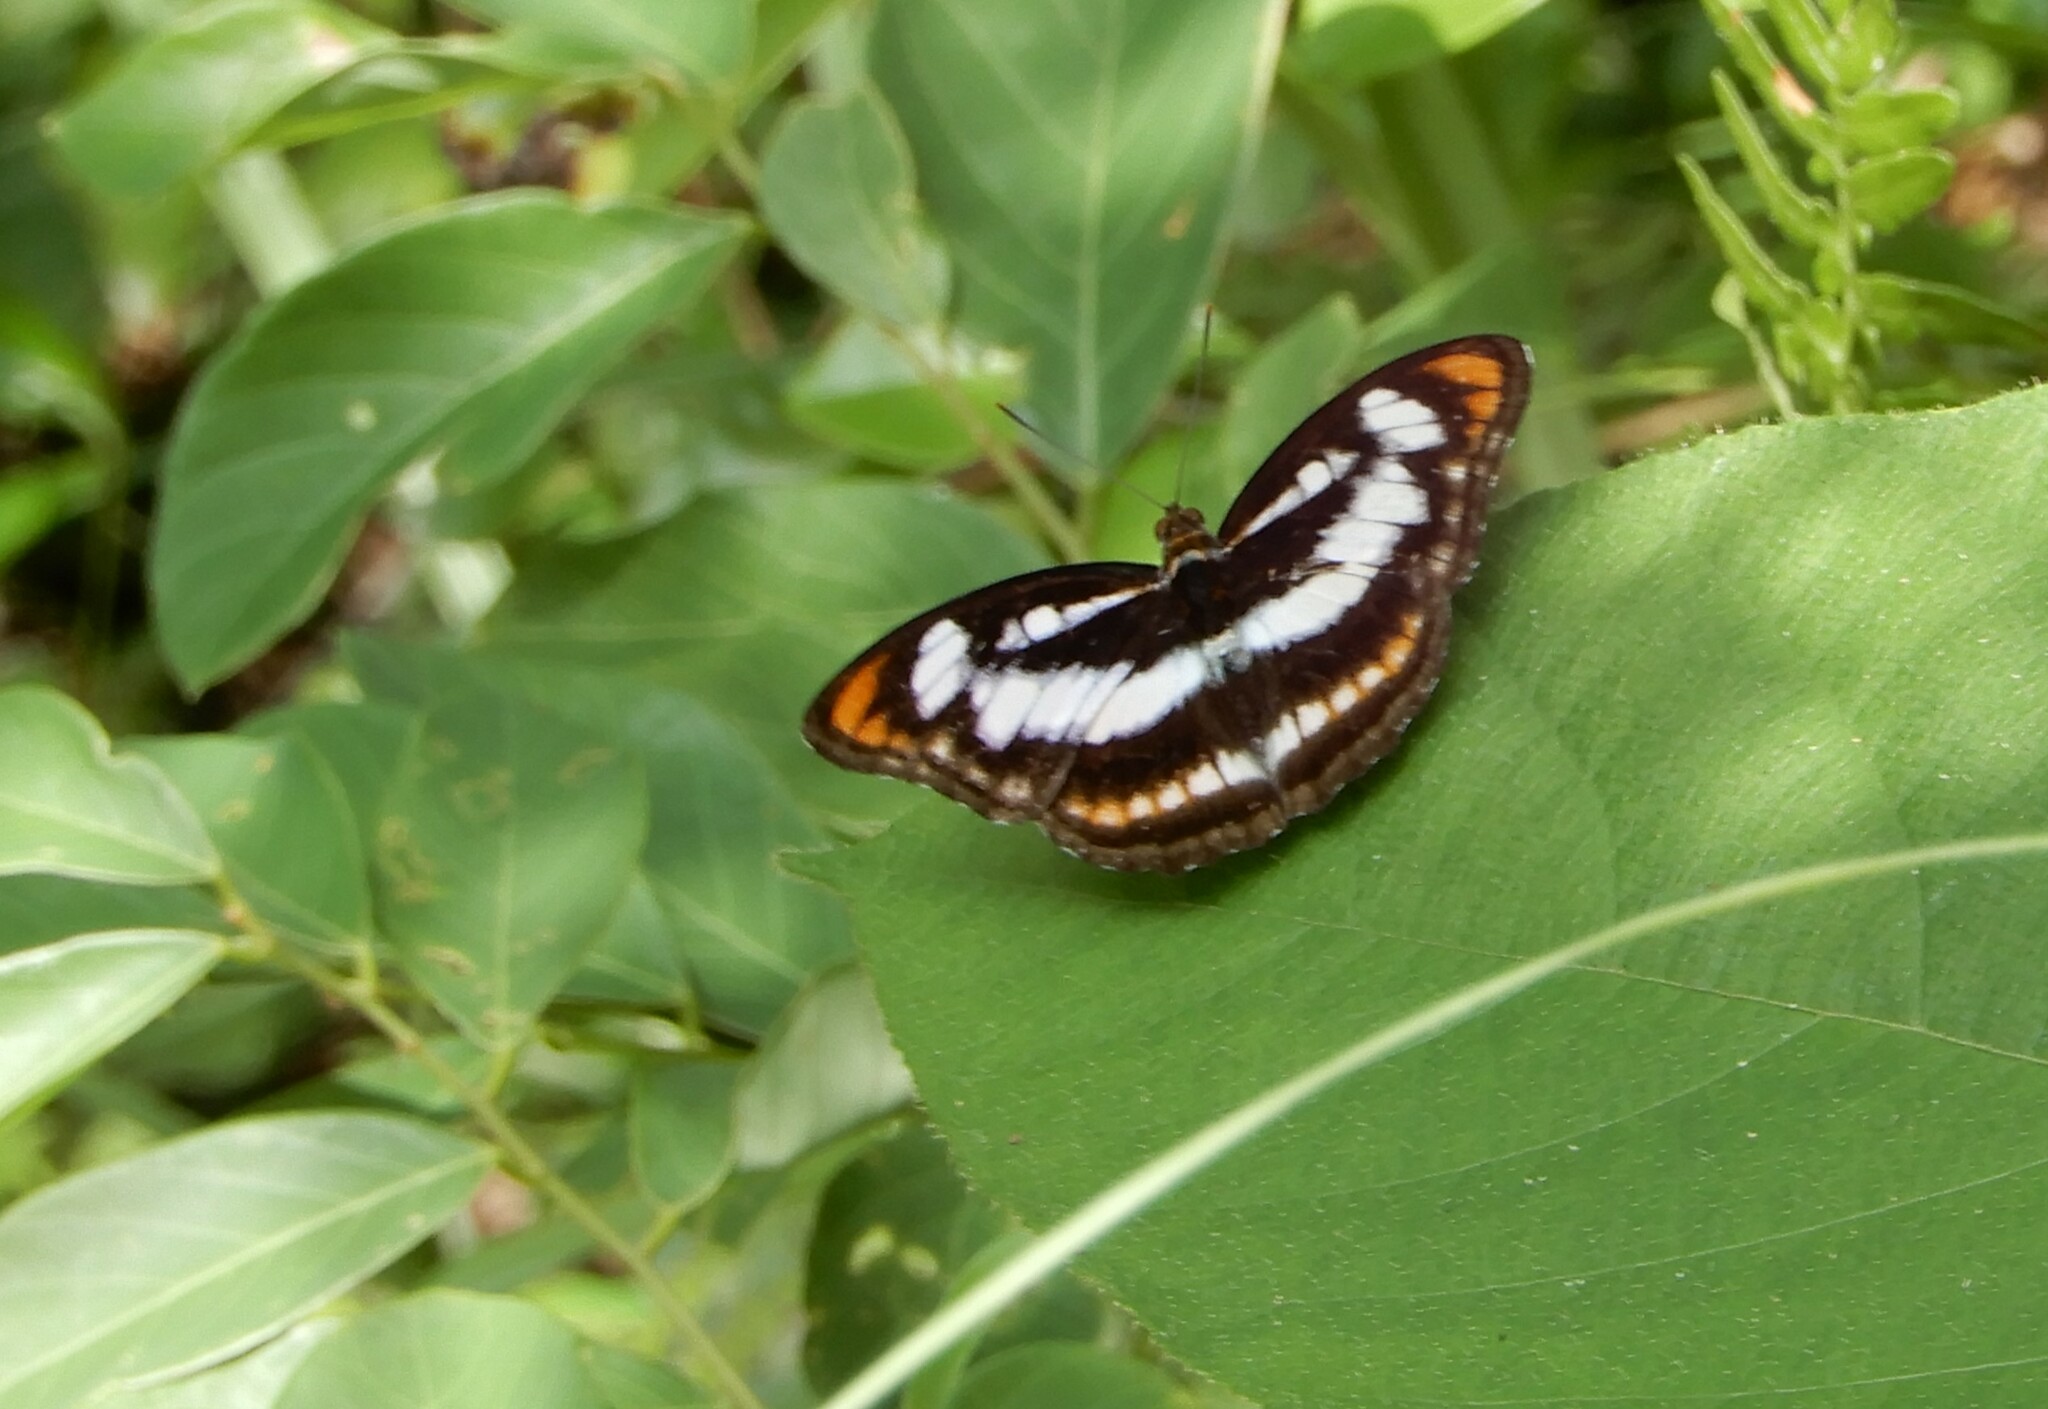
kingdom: Animalia
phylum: Arthropoda
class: Insecta
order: Lepidoptera
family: Nymphalidae
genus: Parathyma
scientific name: Parathyma nefte
